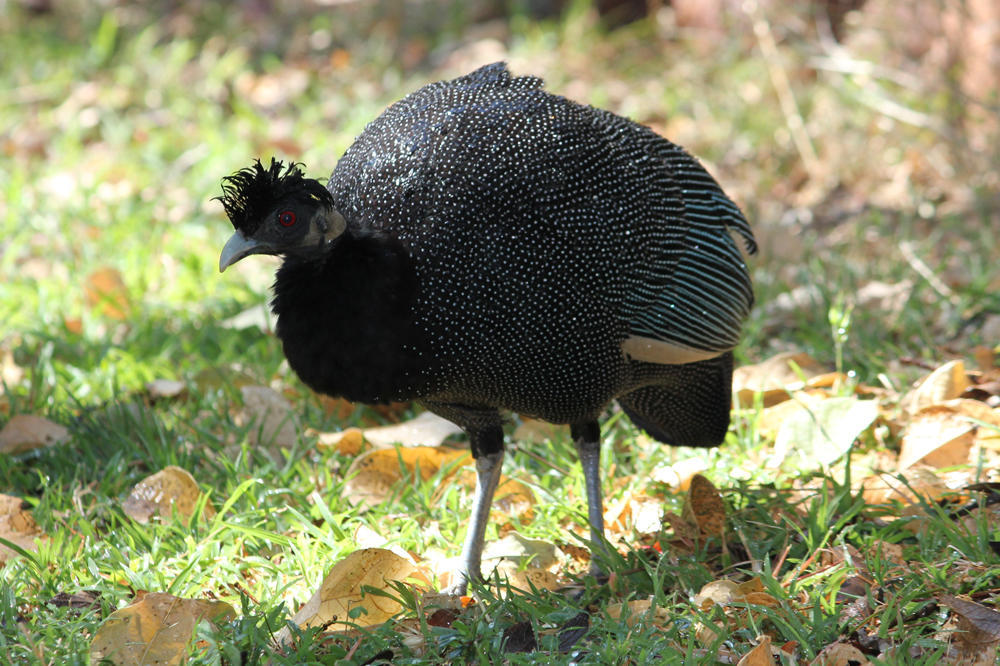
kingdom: Animalia
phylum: Chordata
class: Aves
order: Galliformes
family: Numididae
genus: Guttera
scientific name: Guttera pucherani
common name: Crested guineafowl
